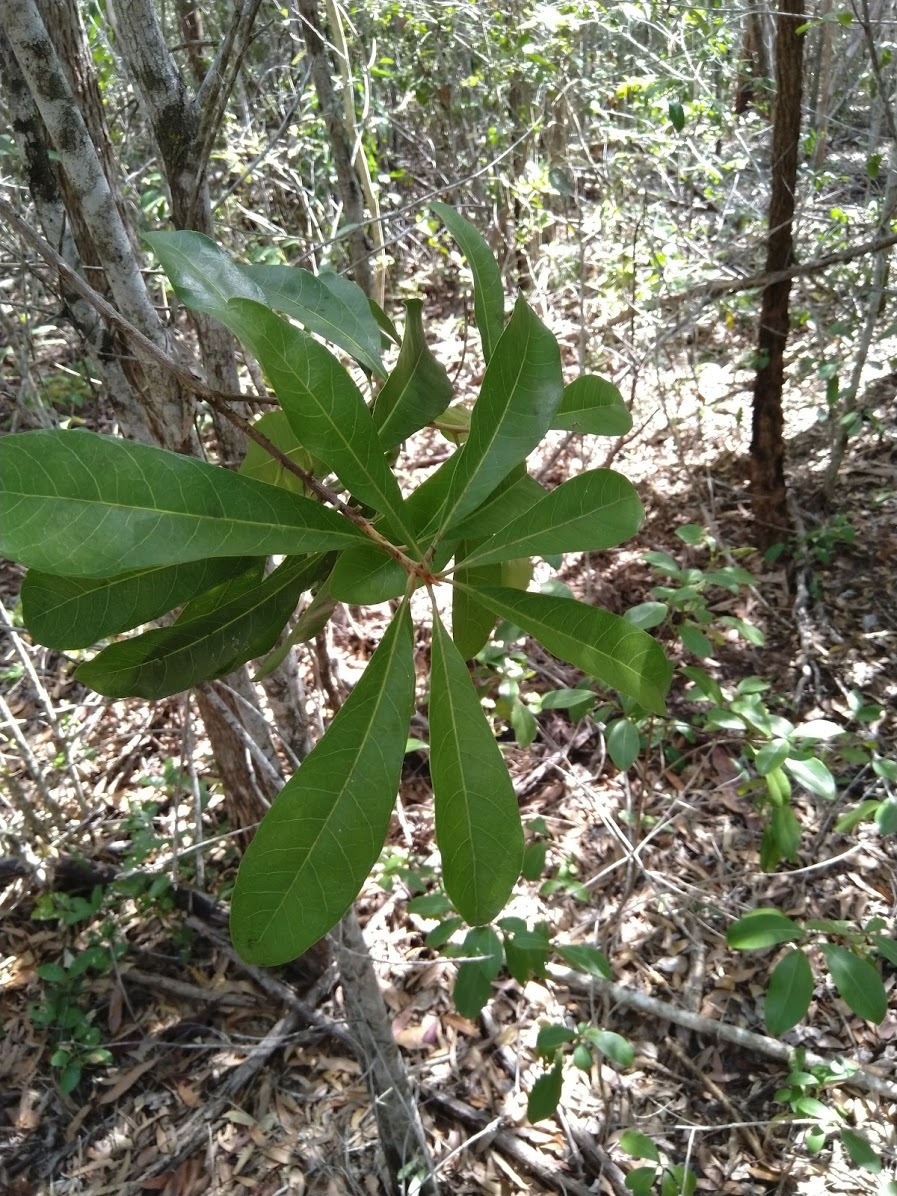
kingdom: Plantae
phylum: Tracheophyta
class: Magnoliopsida
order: Ericales
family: Sapotaceae
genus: Planchonella
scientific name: Planchonella pohlmaniana
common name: Yellow boxwood
